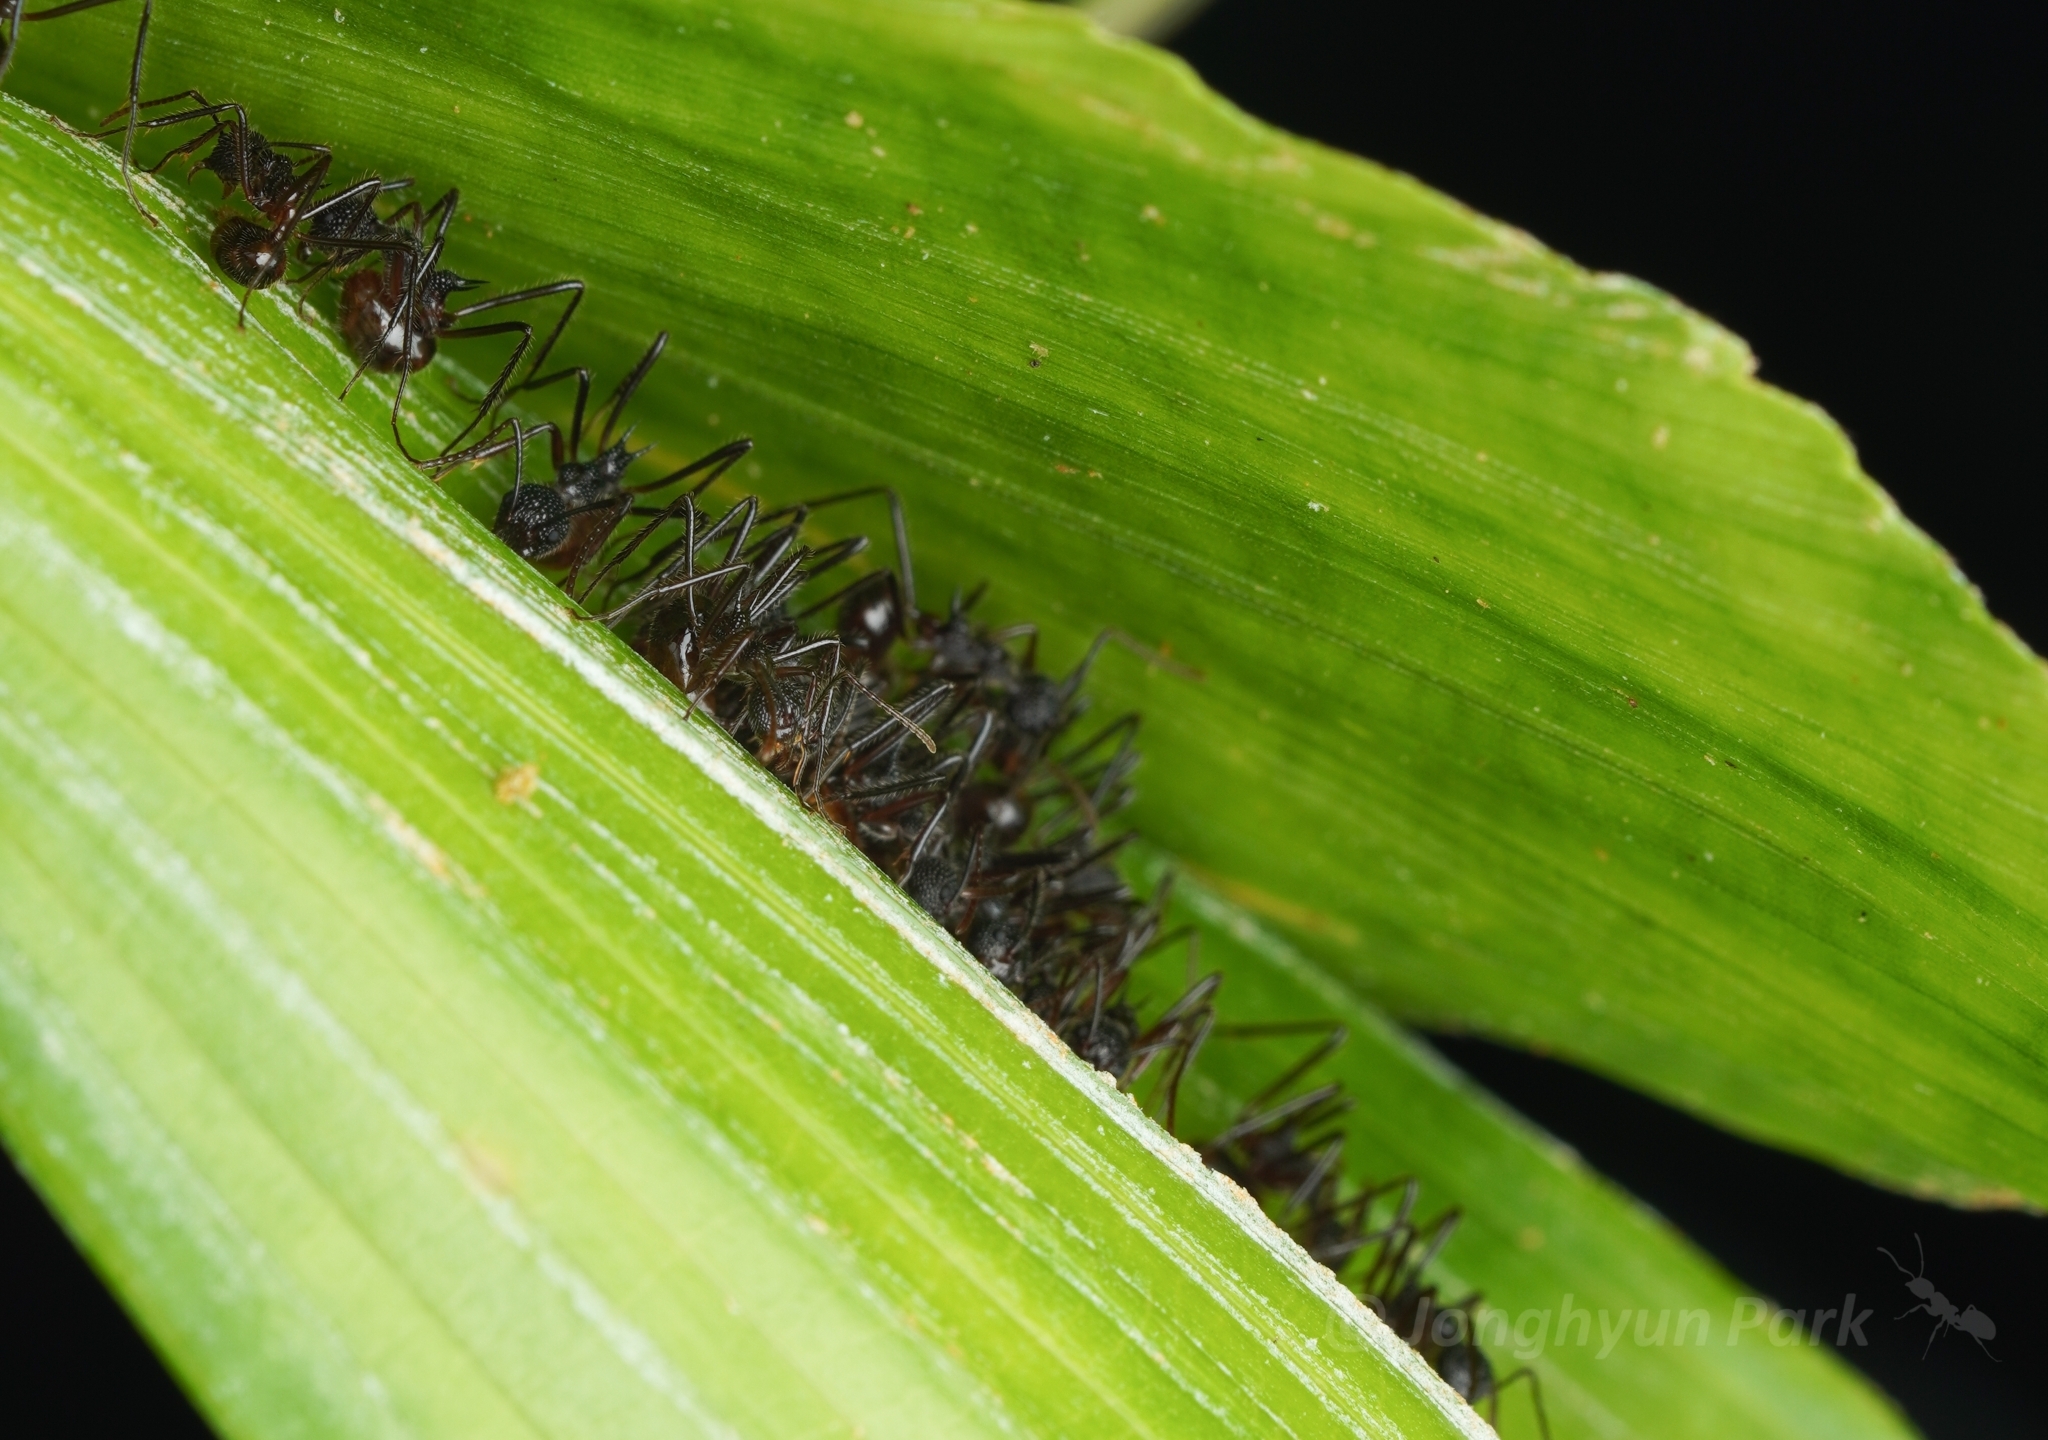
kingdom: Animalia
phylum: Arthropoda
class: Insecta
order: Hymenoptera
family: Formicidae
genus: Dolichoderus
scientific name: Dolichoderus indrapurensis
